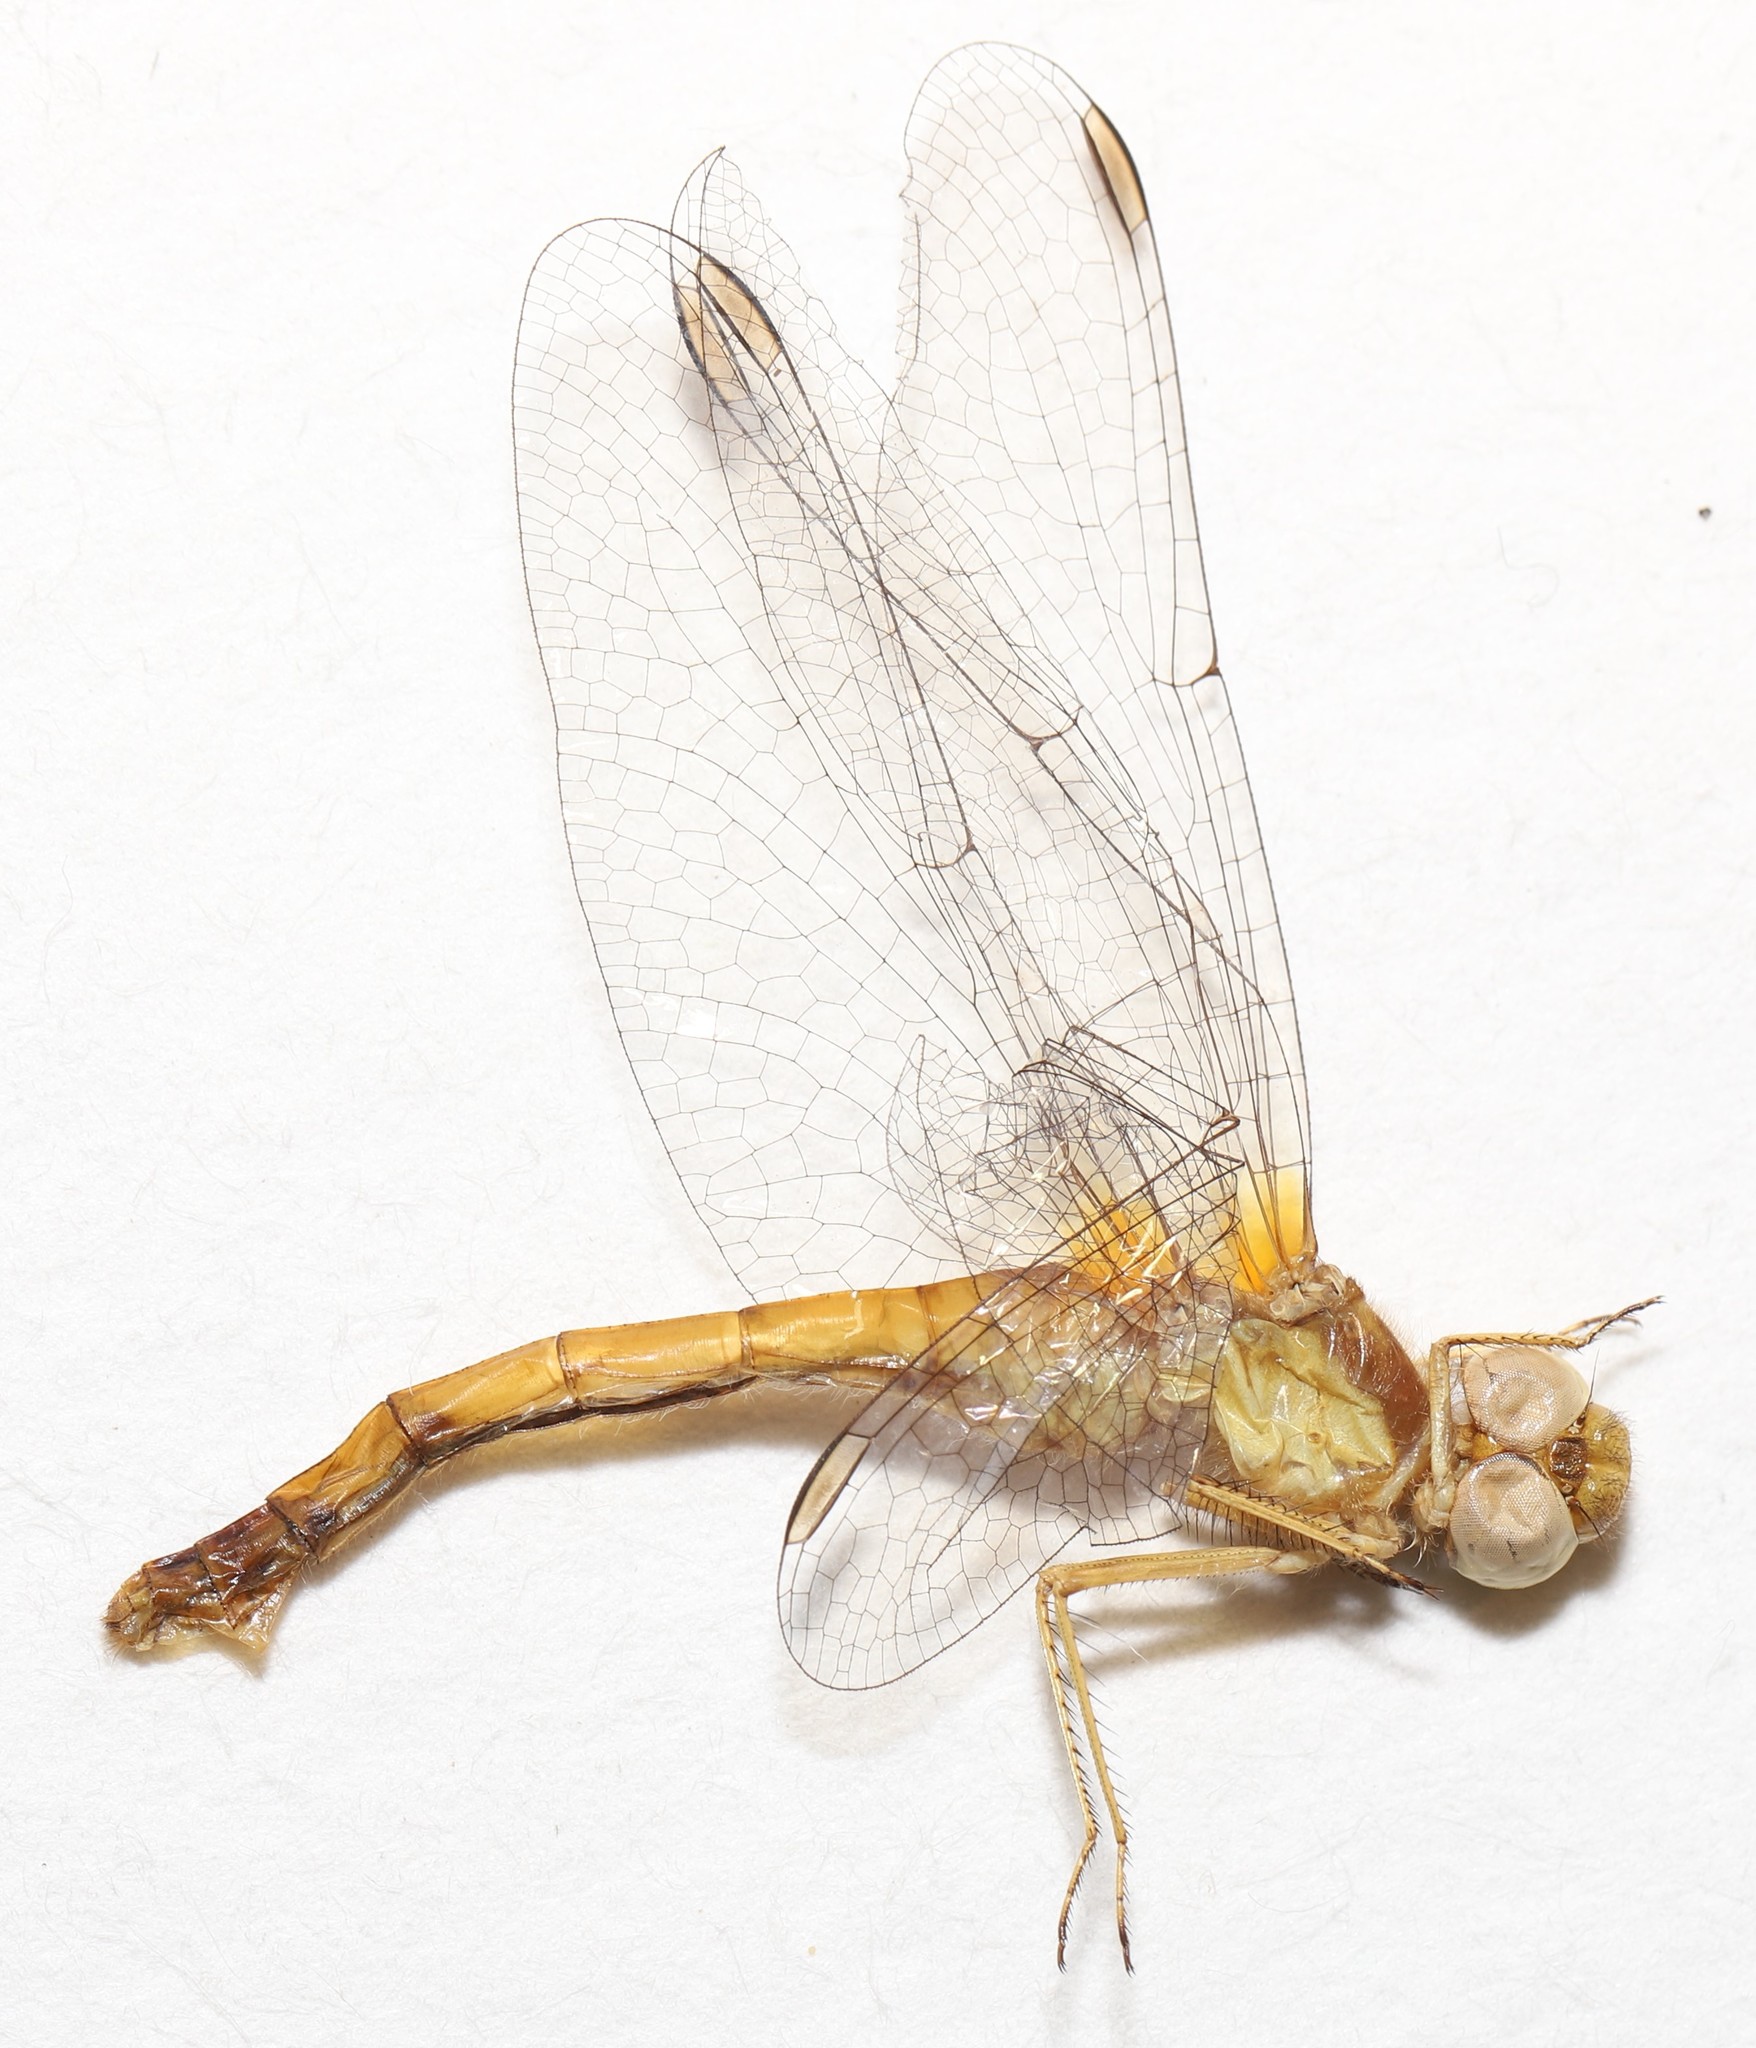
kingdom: Animalia
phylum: Arthropoda
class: Insecta
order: Odonata
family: Libellulidae
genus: Sympetrum
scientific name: Sympetrum vicinum
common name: Autumn meadowhawk
